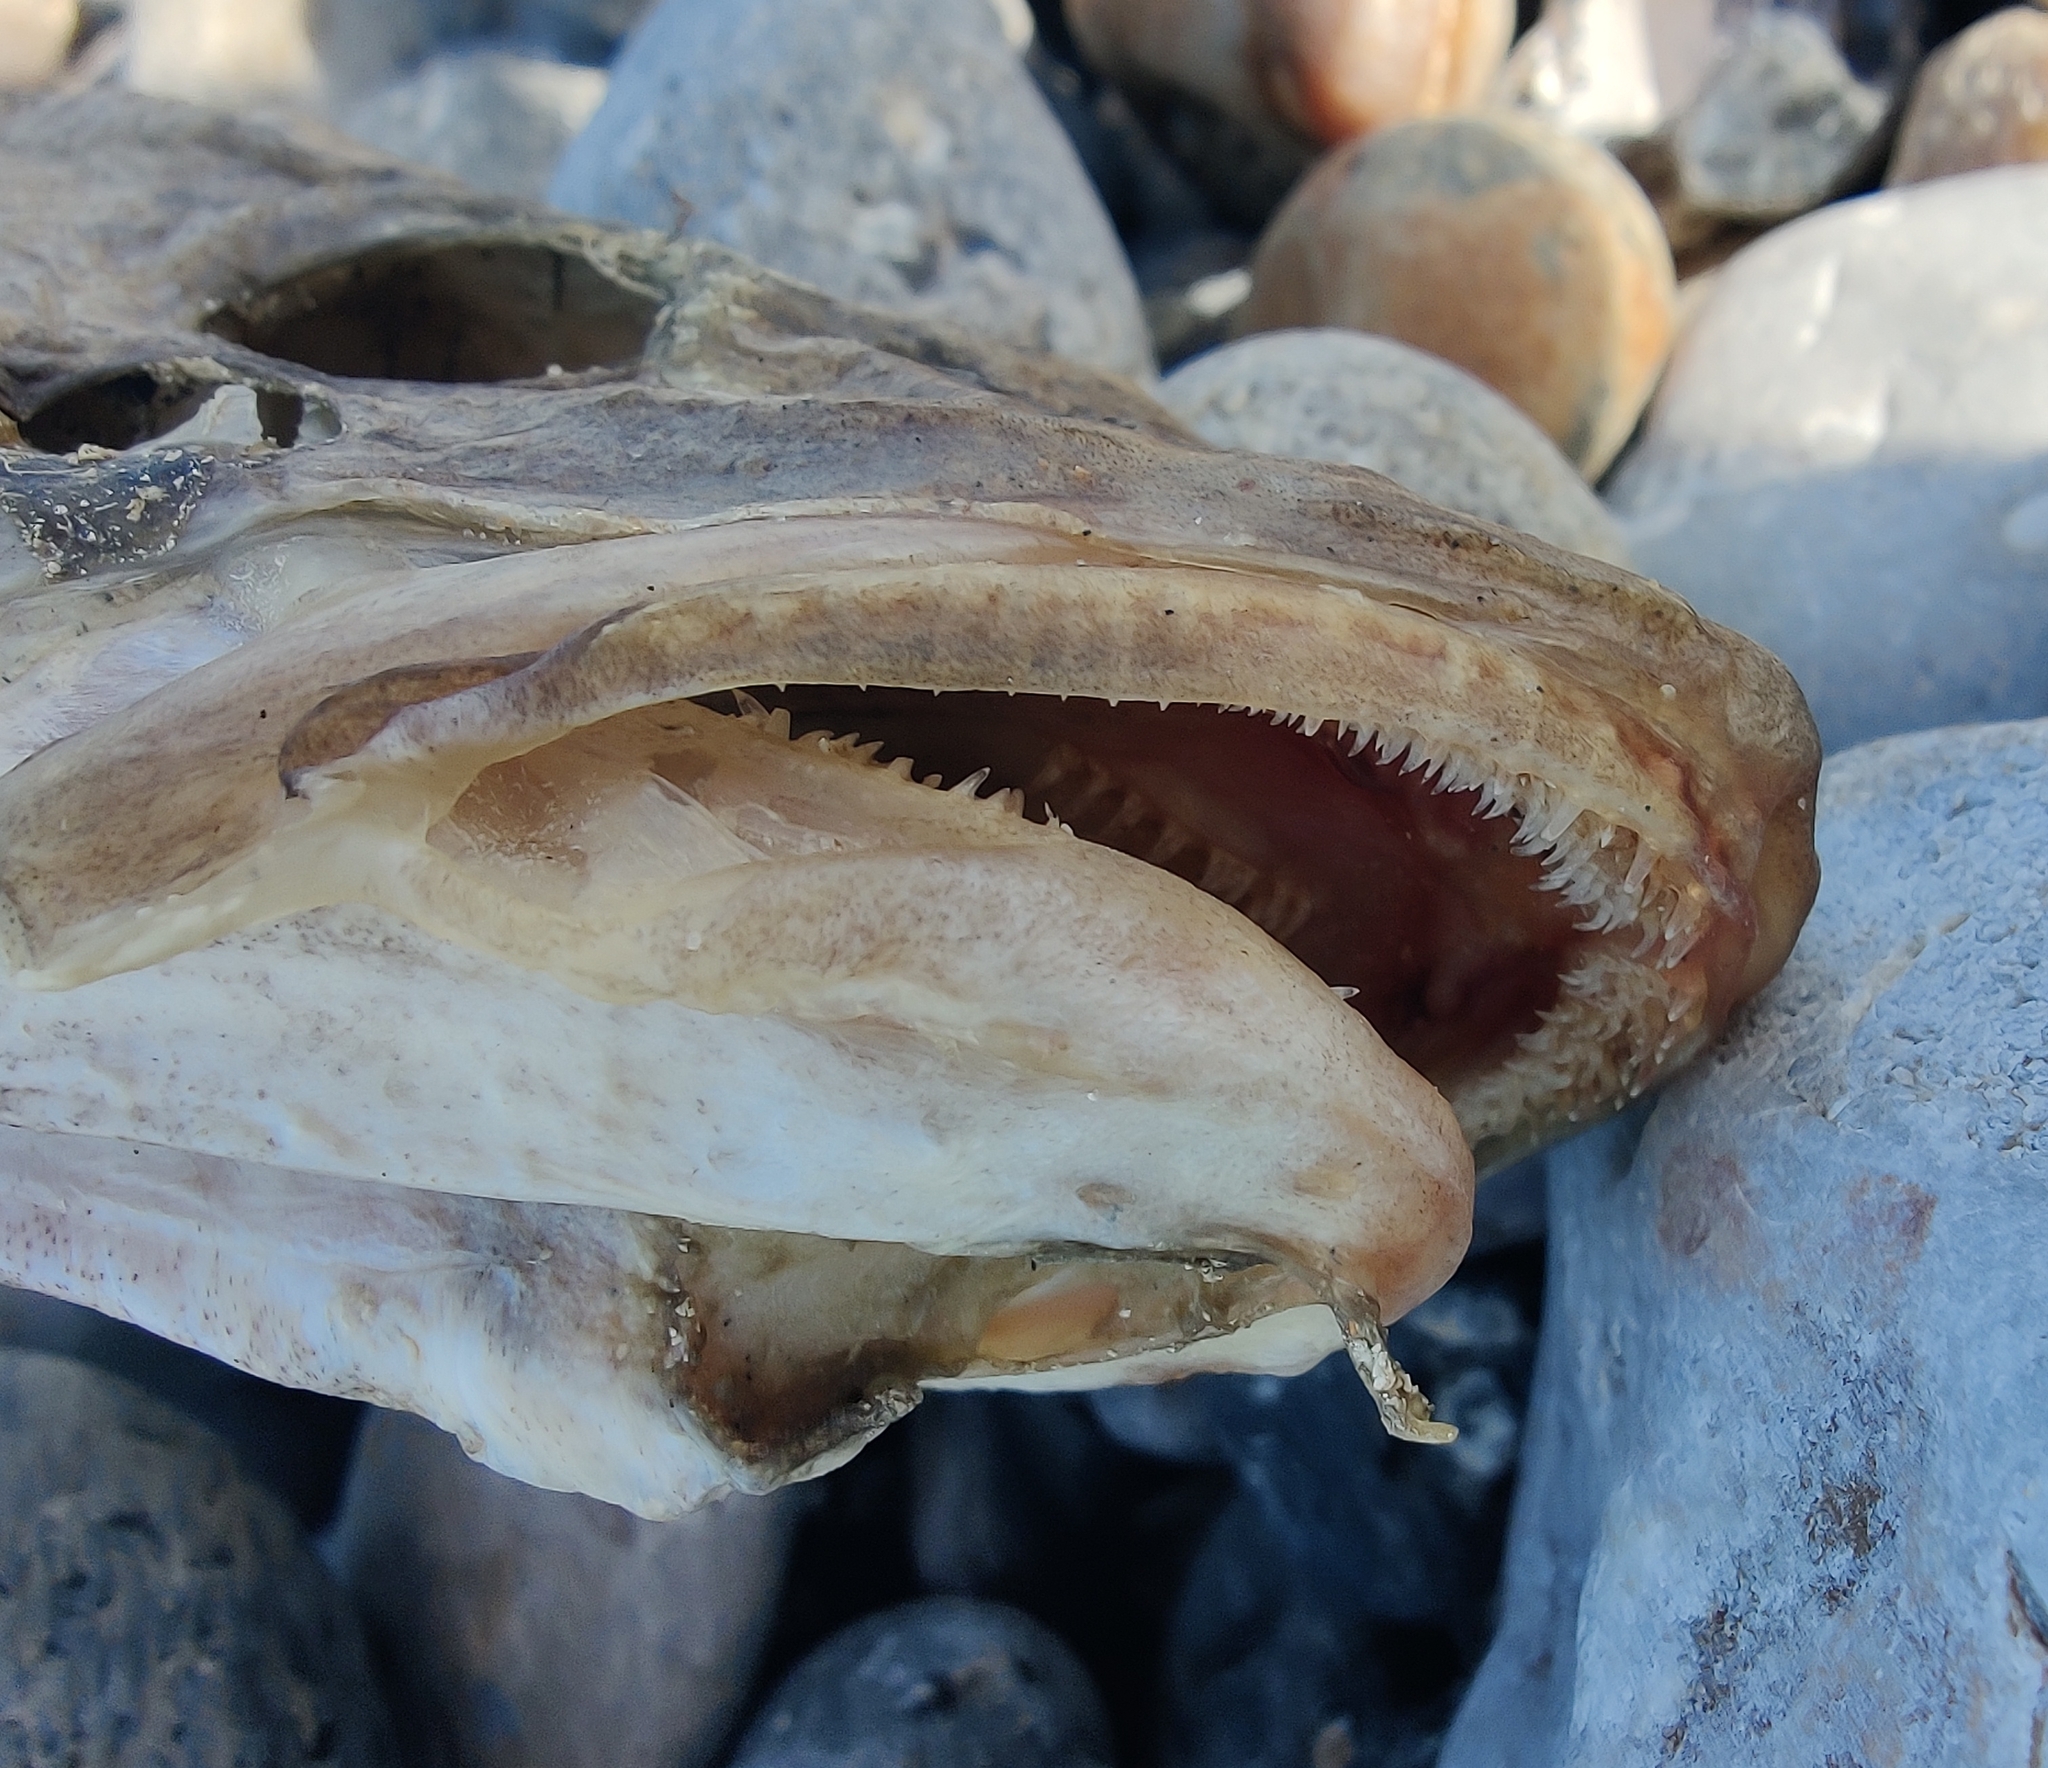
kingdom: Animalia
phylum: Chordata
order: Gadiformes
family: Gadidae
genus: Gadus
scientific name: Gadus morhua
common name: Atlantic cod
